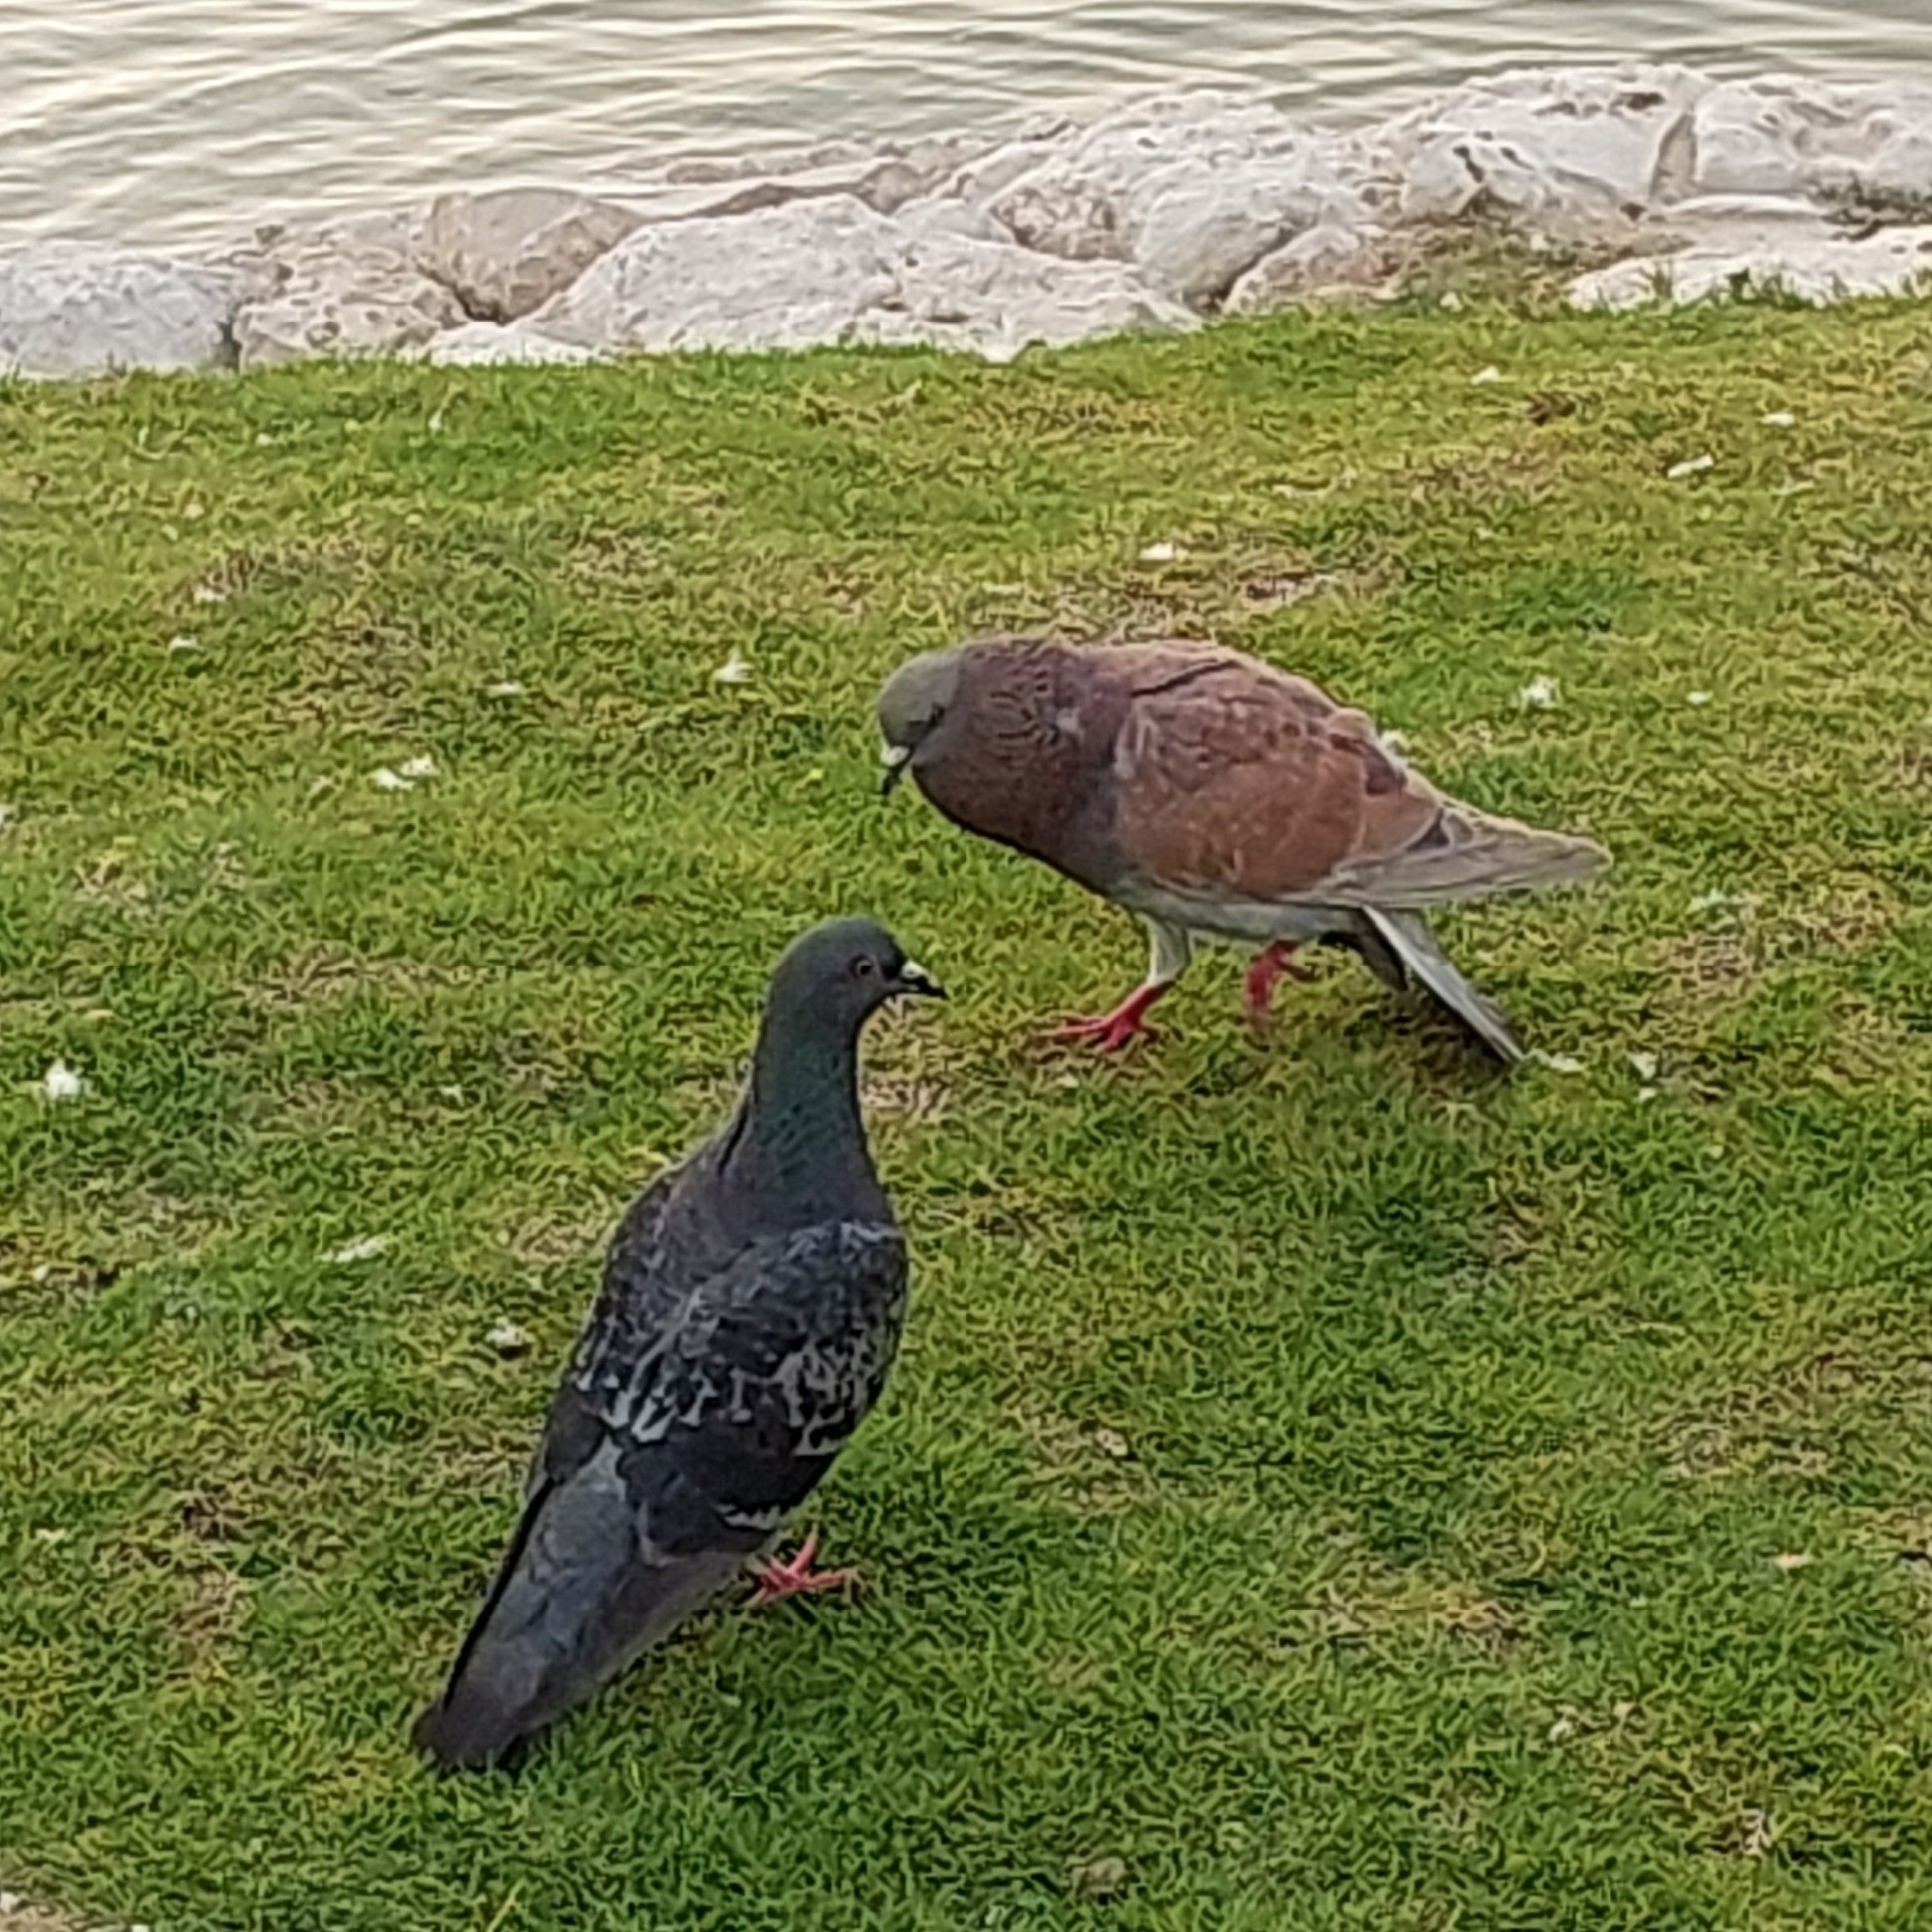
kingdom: Animalia
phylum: Chordata
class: Aves
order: Columbiformes
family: Columbidae
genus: Columba
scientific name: Columba livia
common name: Rock pigeon
